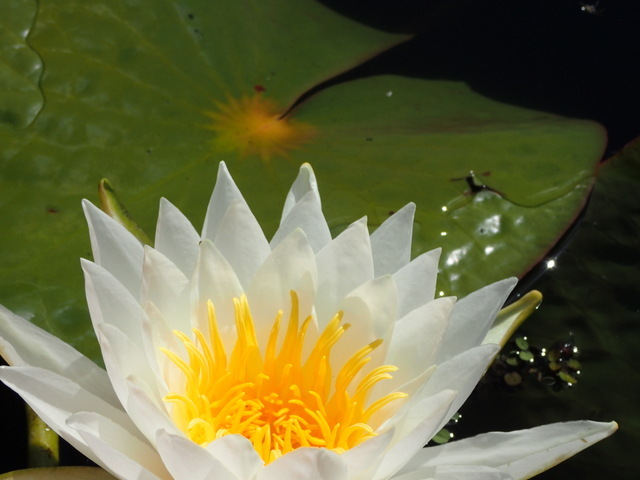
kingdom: Plantae
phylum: Tracheophyta
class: Magnoliopsida
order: Nymphaeales
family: Nymphaeaceae
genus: Nymphaea
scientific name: Nymphaea odorata
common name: Fragrant water-lily
